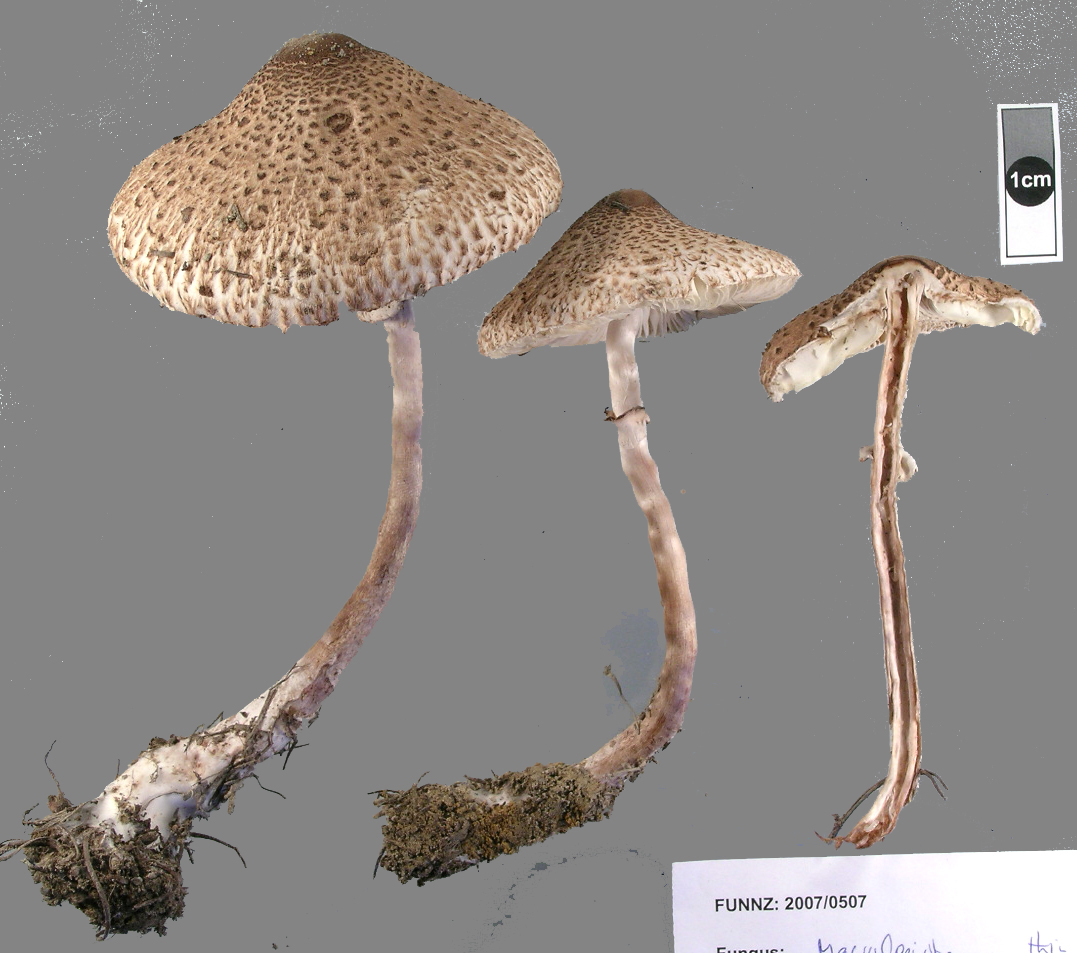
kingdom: Fungi
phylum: Basidiomycota
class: Agaricomycetes
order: Agaricales
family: Agaricaceae
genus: Macrolepiota
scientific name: Macrolepiota clelandii
